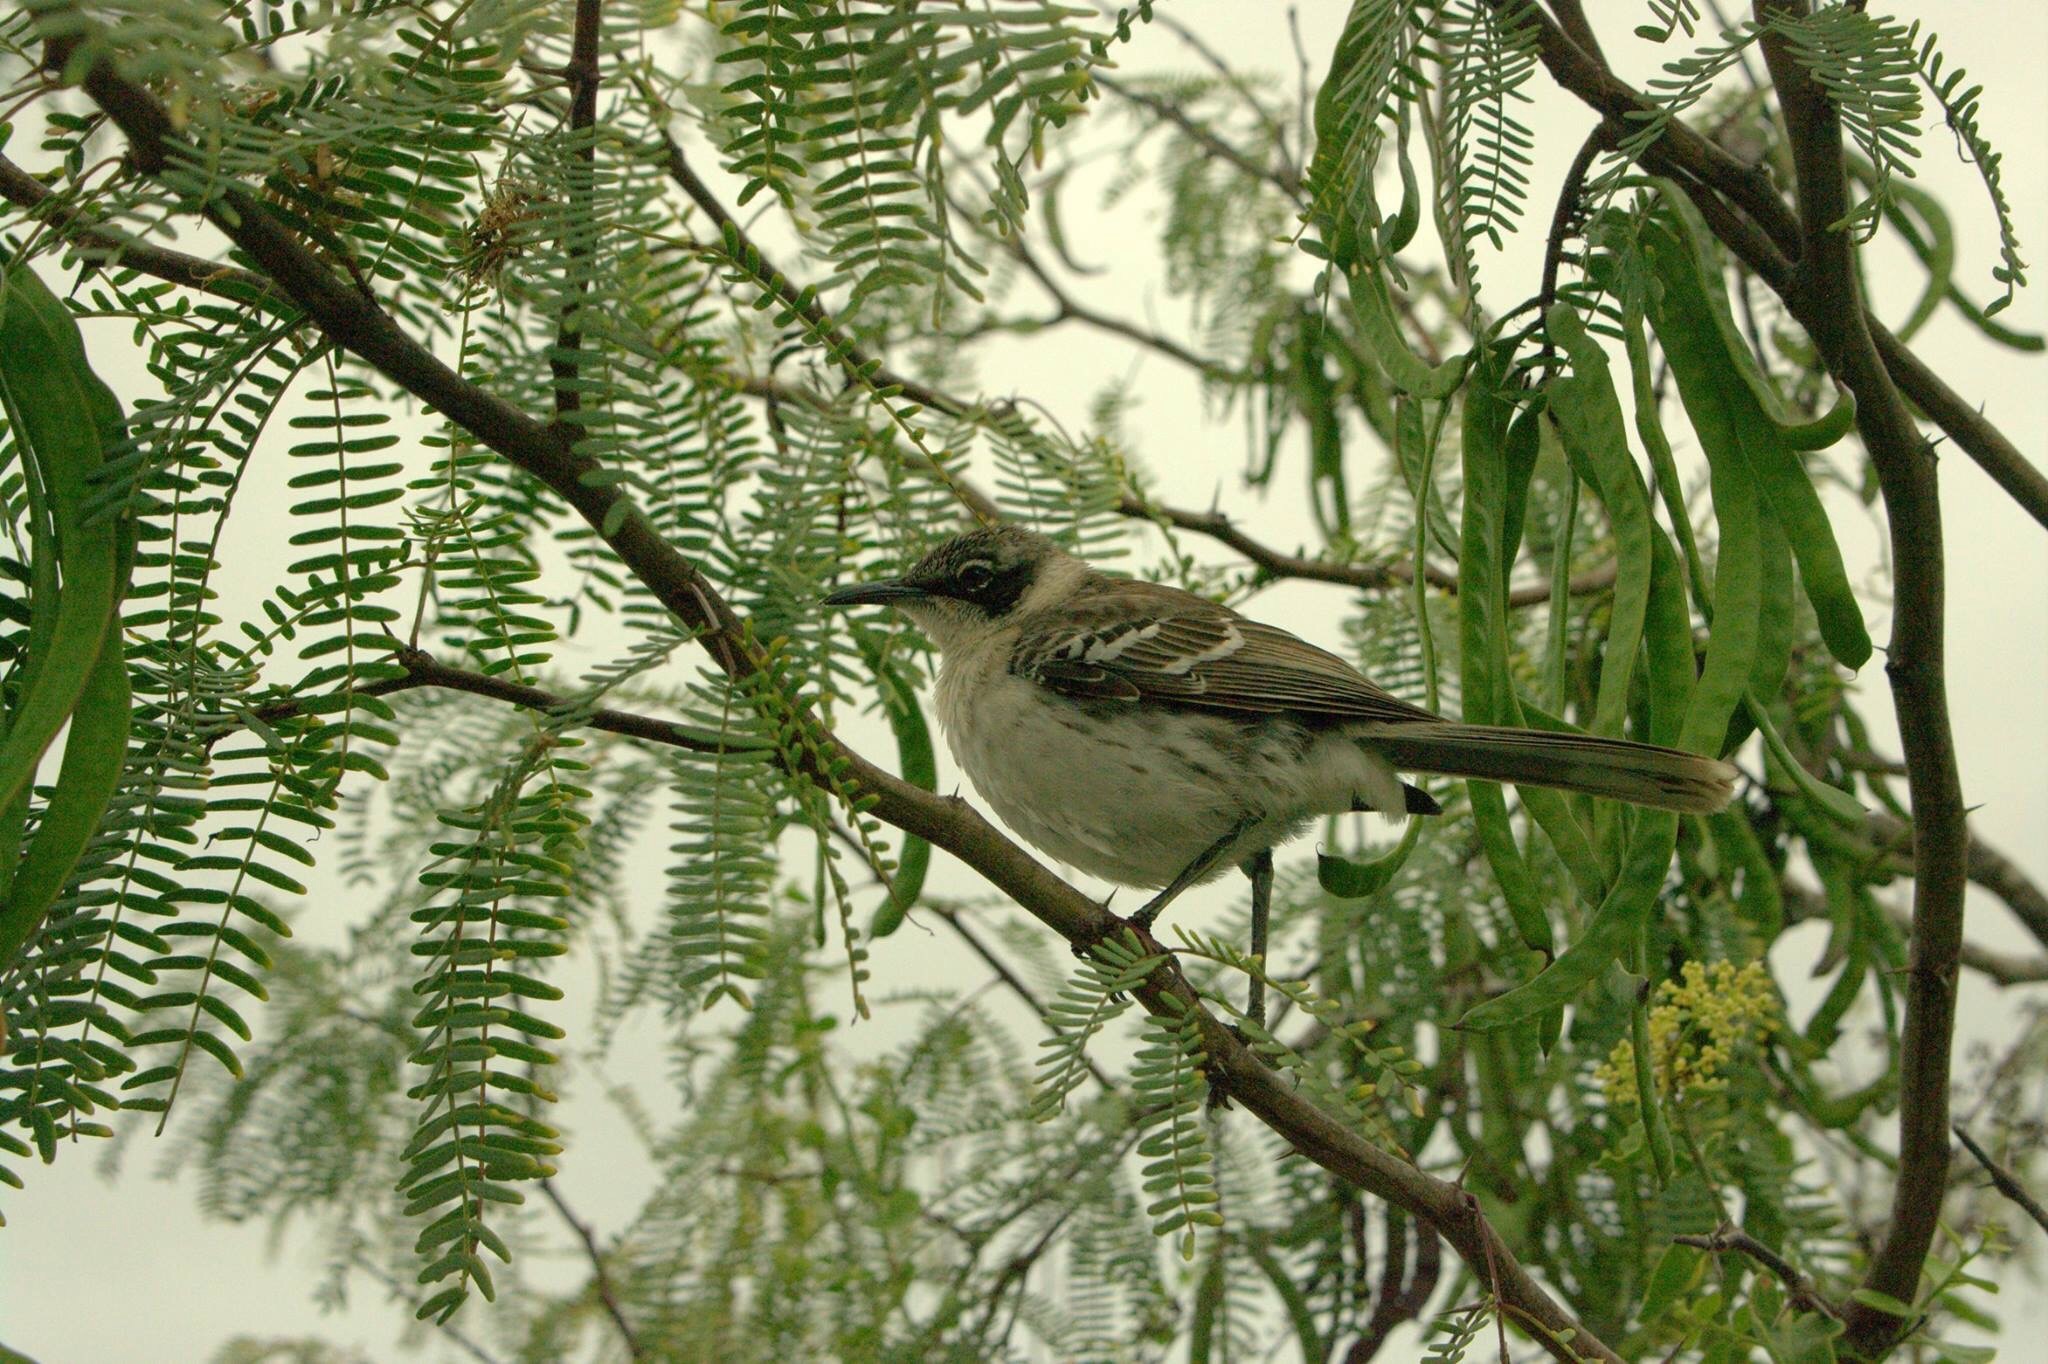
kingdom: Animalia
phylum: Chordata
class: Aves
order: Passeriformes
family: Mimidae
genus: Mimus
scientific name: Mimus parvulus
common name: Galapagos mockingbird
